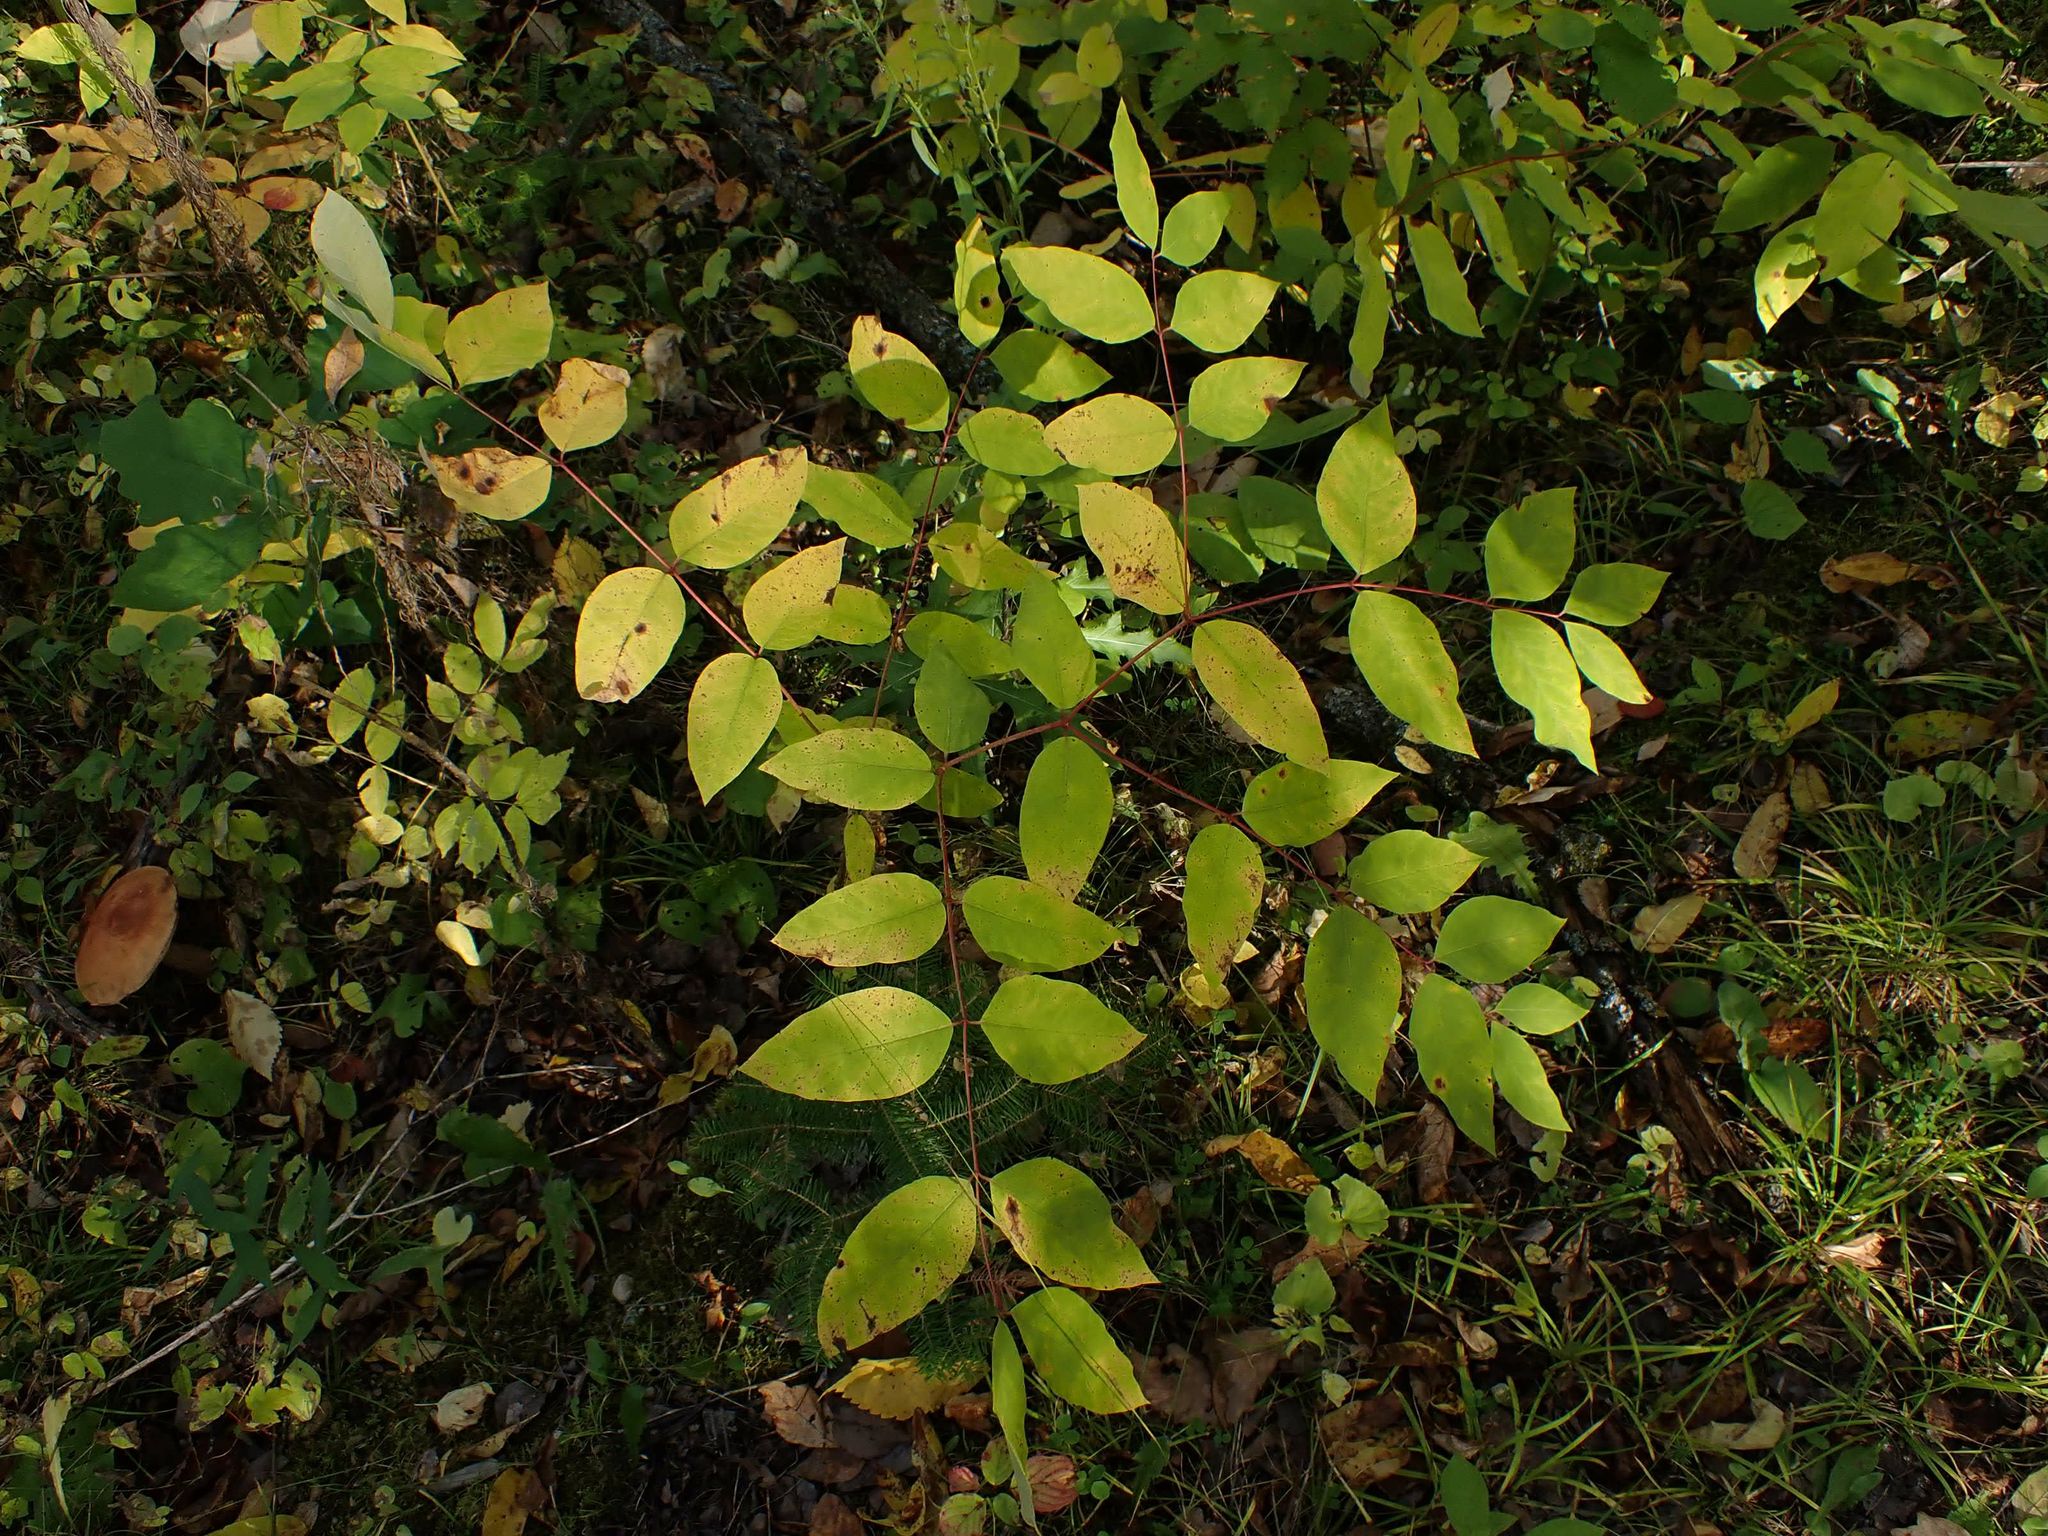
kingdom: Plantae
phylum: Tracheophyta
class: Magnoliopsida
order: Gentianales
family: Apocynaceae
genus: Apocynum
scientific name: Apocynum androsaemifolium
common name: Spreading dogbane
